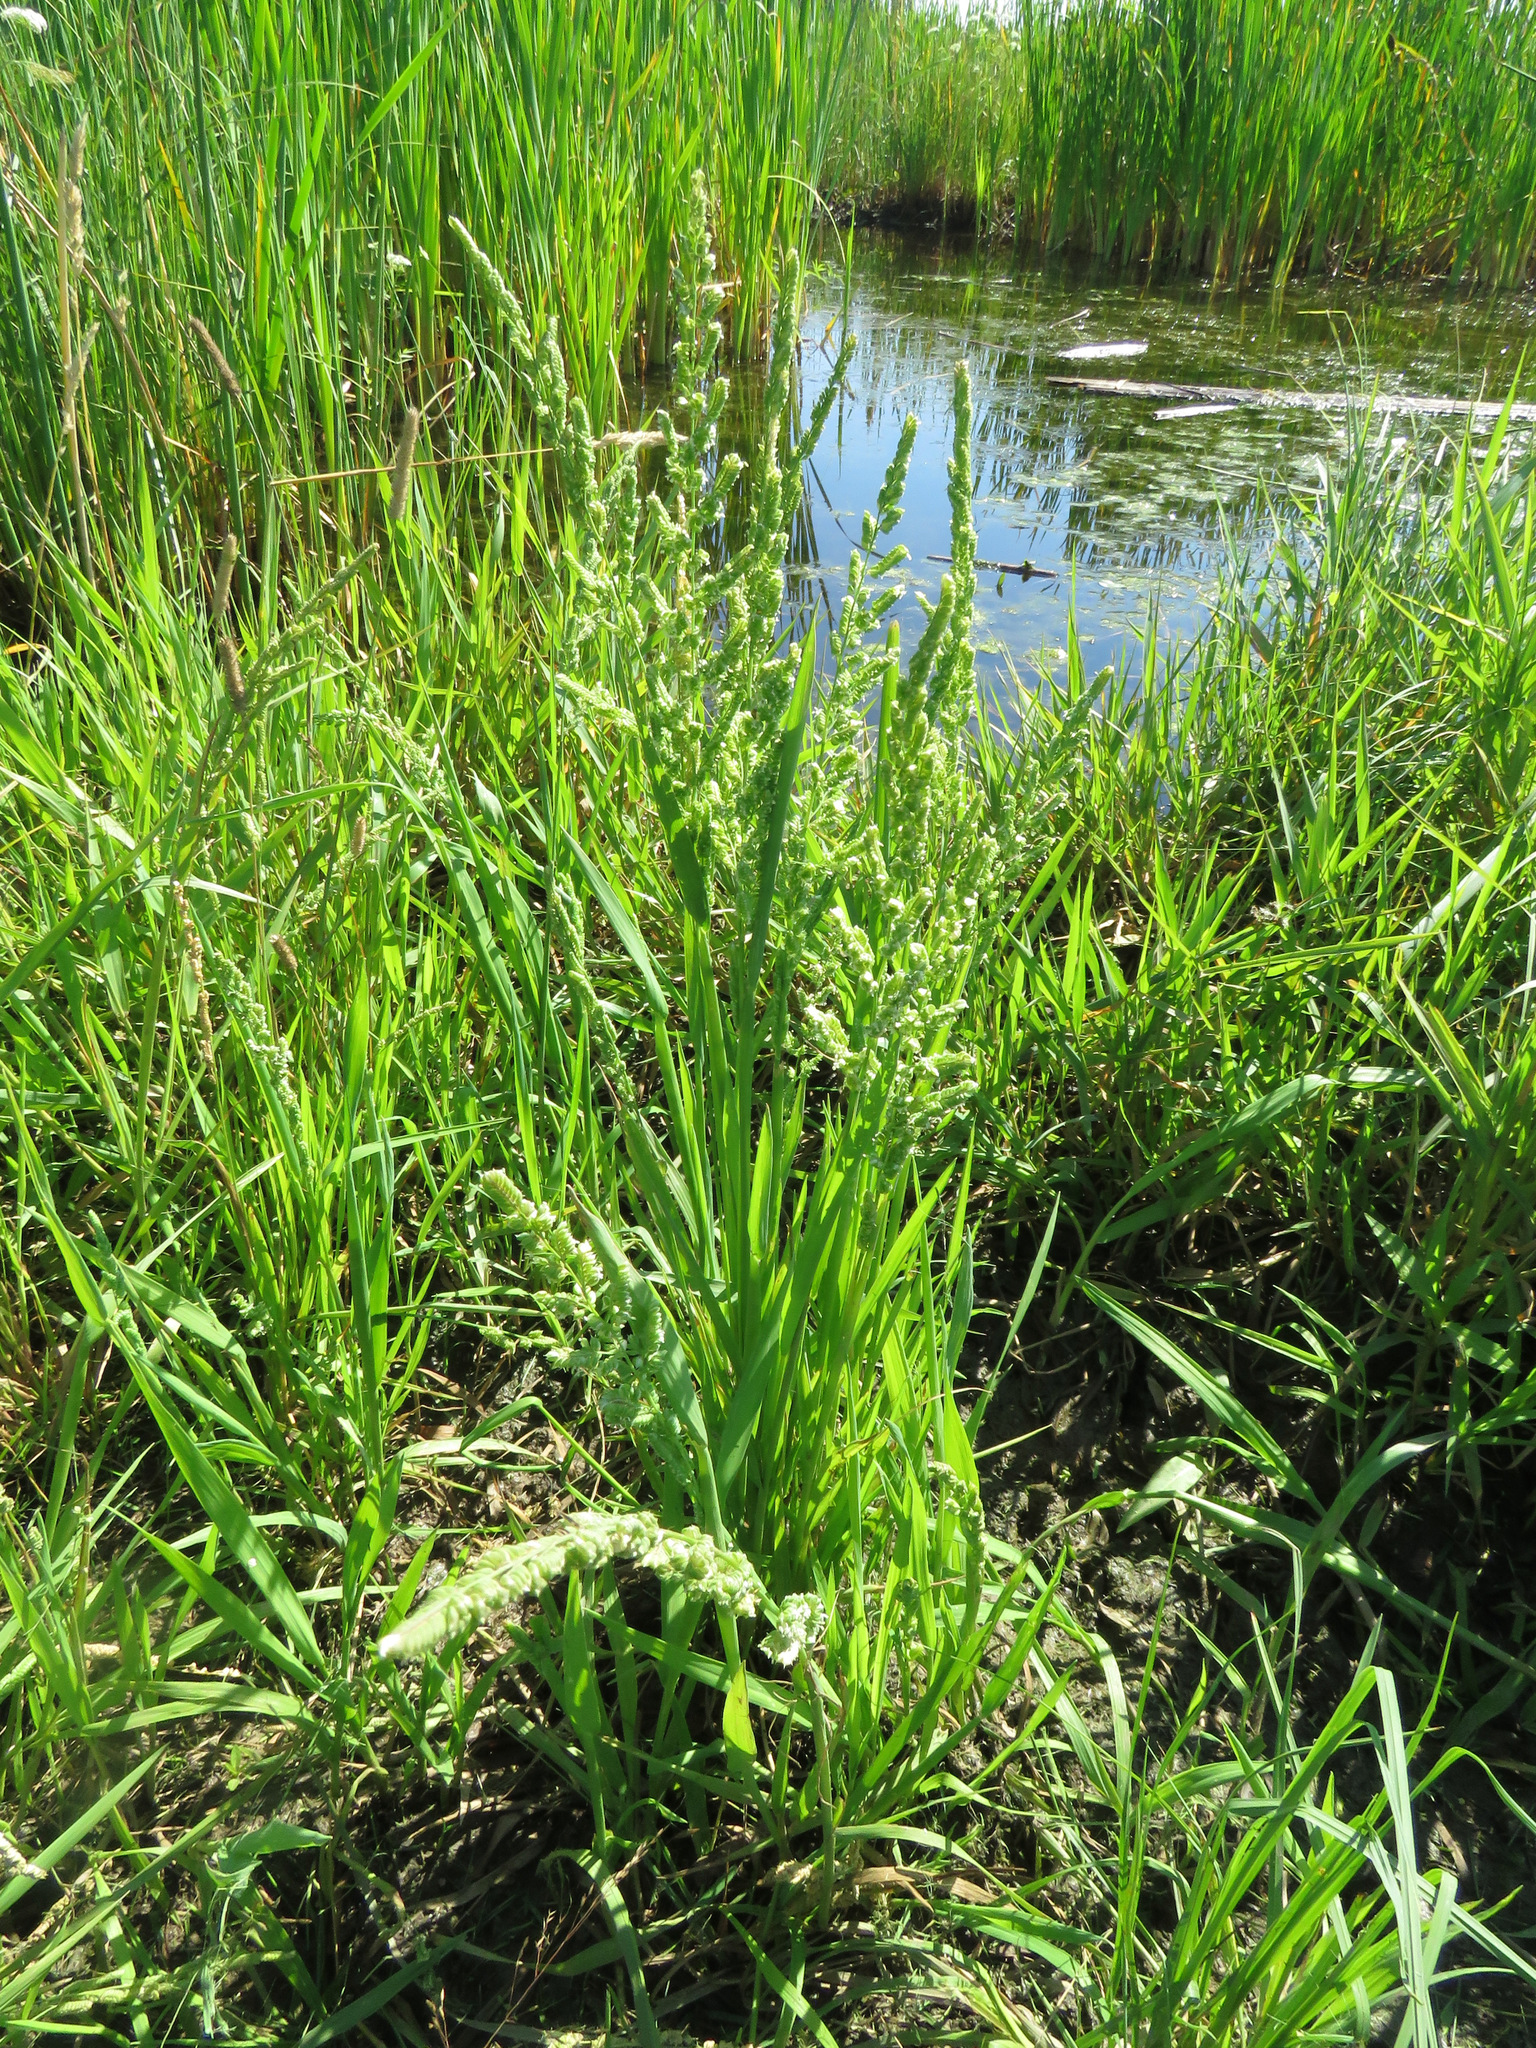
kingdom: Plantae
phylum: Tracheophyta
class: Liliopsida
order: Poales
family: Poaceae
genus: Beckmannia
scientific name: Beckmannia syzigachne
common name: American slough-grass
